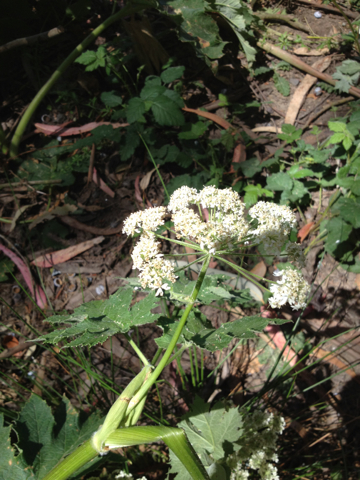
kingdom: Plantae
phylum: Tracheophyta
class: Magnoliopsida
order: Apiales
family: Apiaceae
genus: Heracleum
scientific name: Heracleum maximum
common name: American cow parsnip
